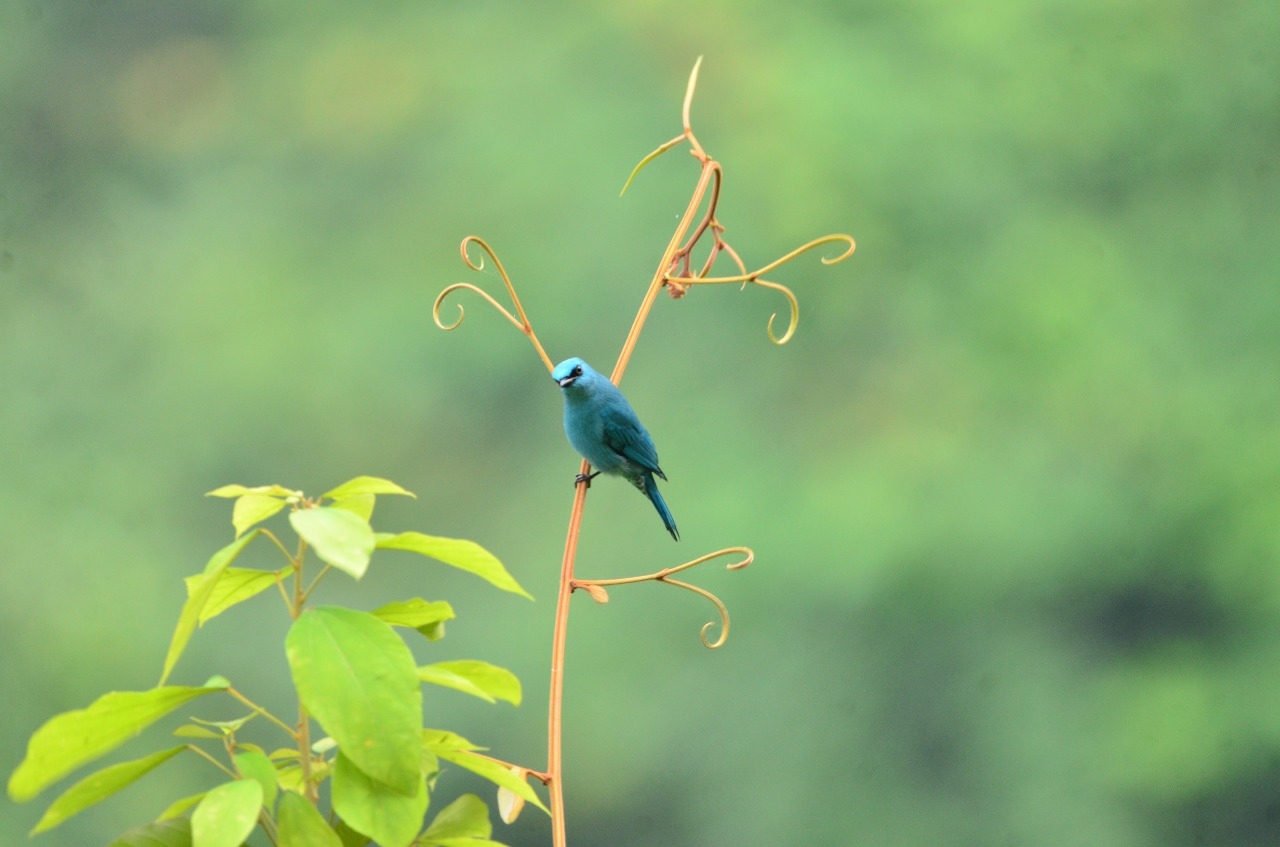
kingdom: Animalia
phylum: Chordata
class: Aves
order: Passeriformes
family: Muscicapidae
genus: Eumyias
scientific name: Eumyias thalassinus
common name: Verditer flycatcher
